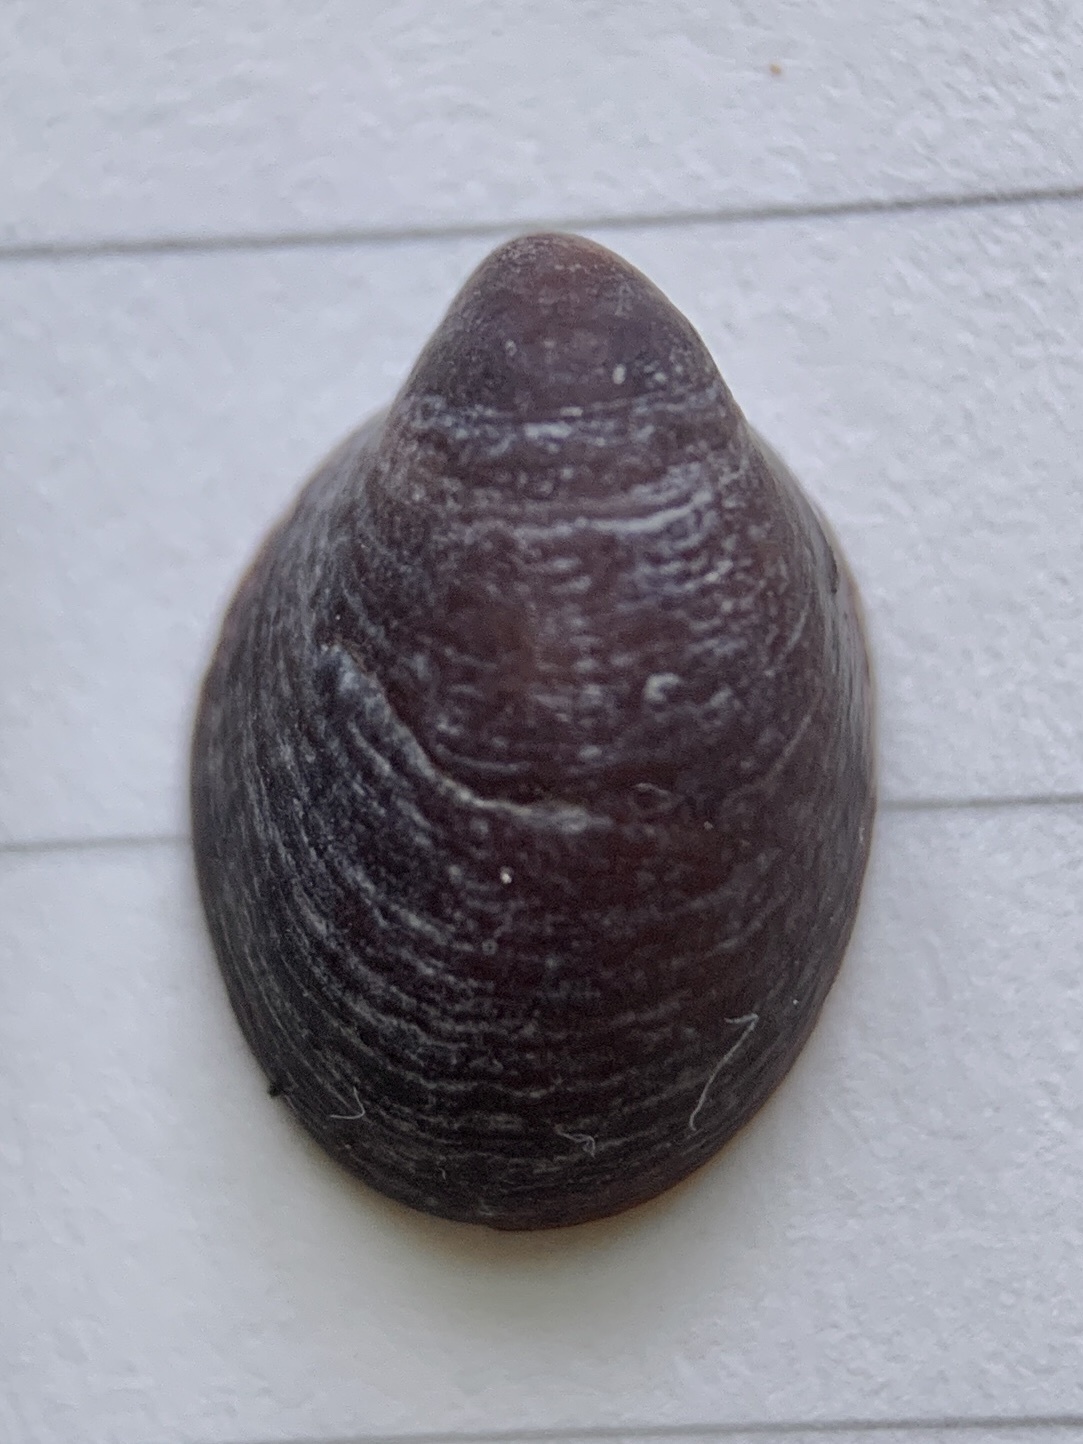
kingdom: Animalia
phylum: Mollusca
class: Gastropoda
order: Littorinimorpha
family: Calyptraeidae
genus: Crepidula
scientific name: Crepidula convexa
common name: Convex slippersnail
